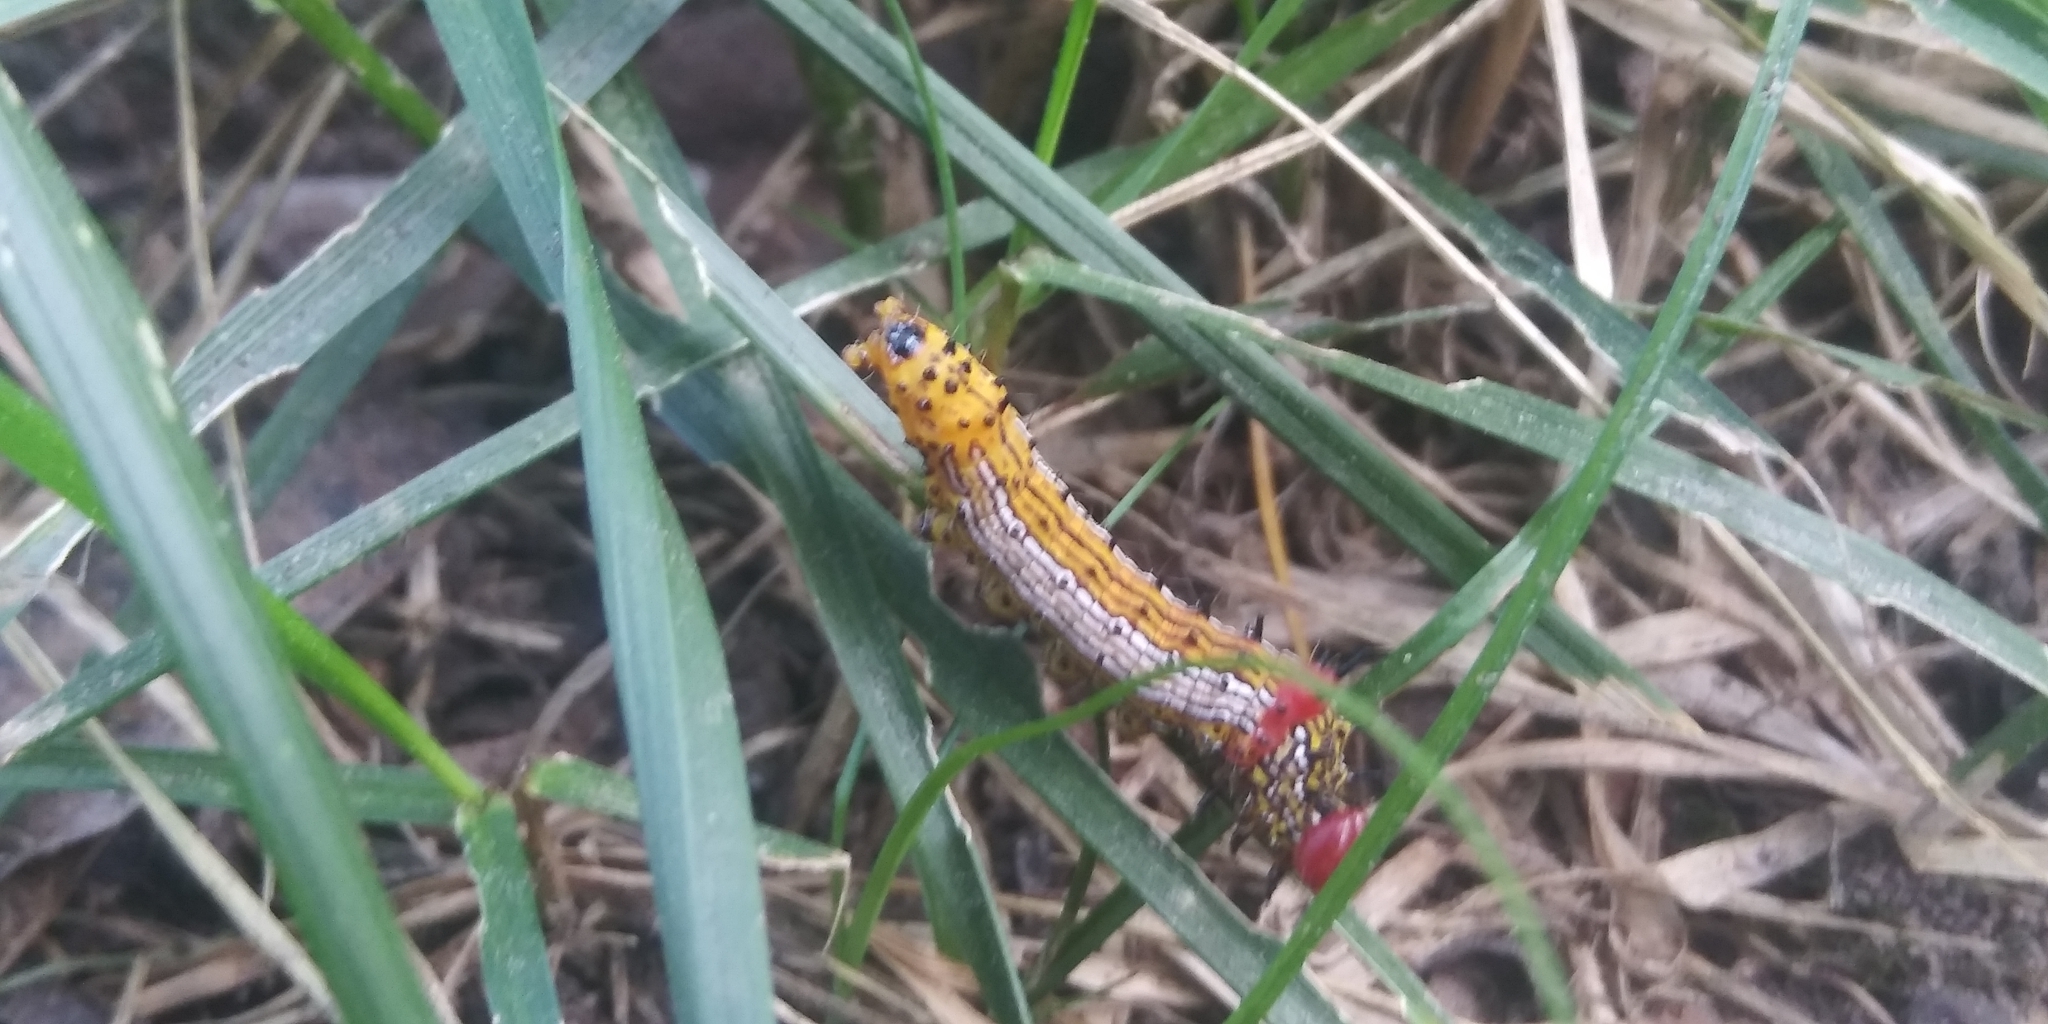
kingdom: Animalia
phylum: Arthropoda
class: Insecta
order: Lepidoptera
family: Notodontidae
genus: Schizura
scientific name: Schizura
